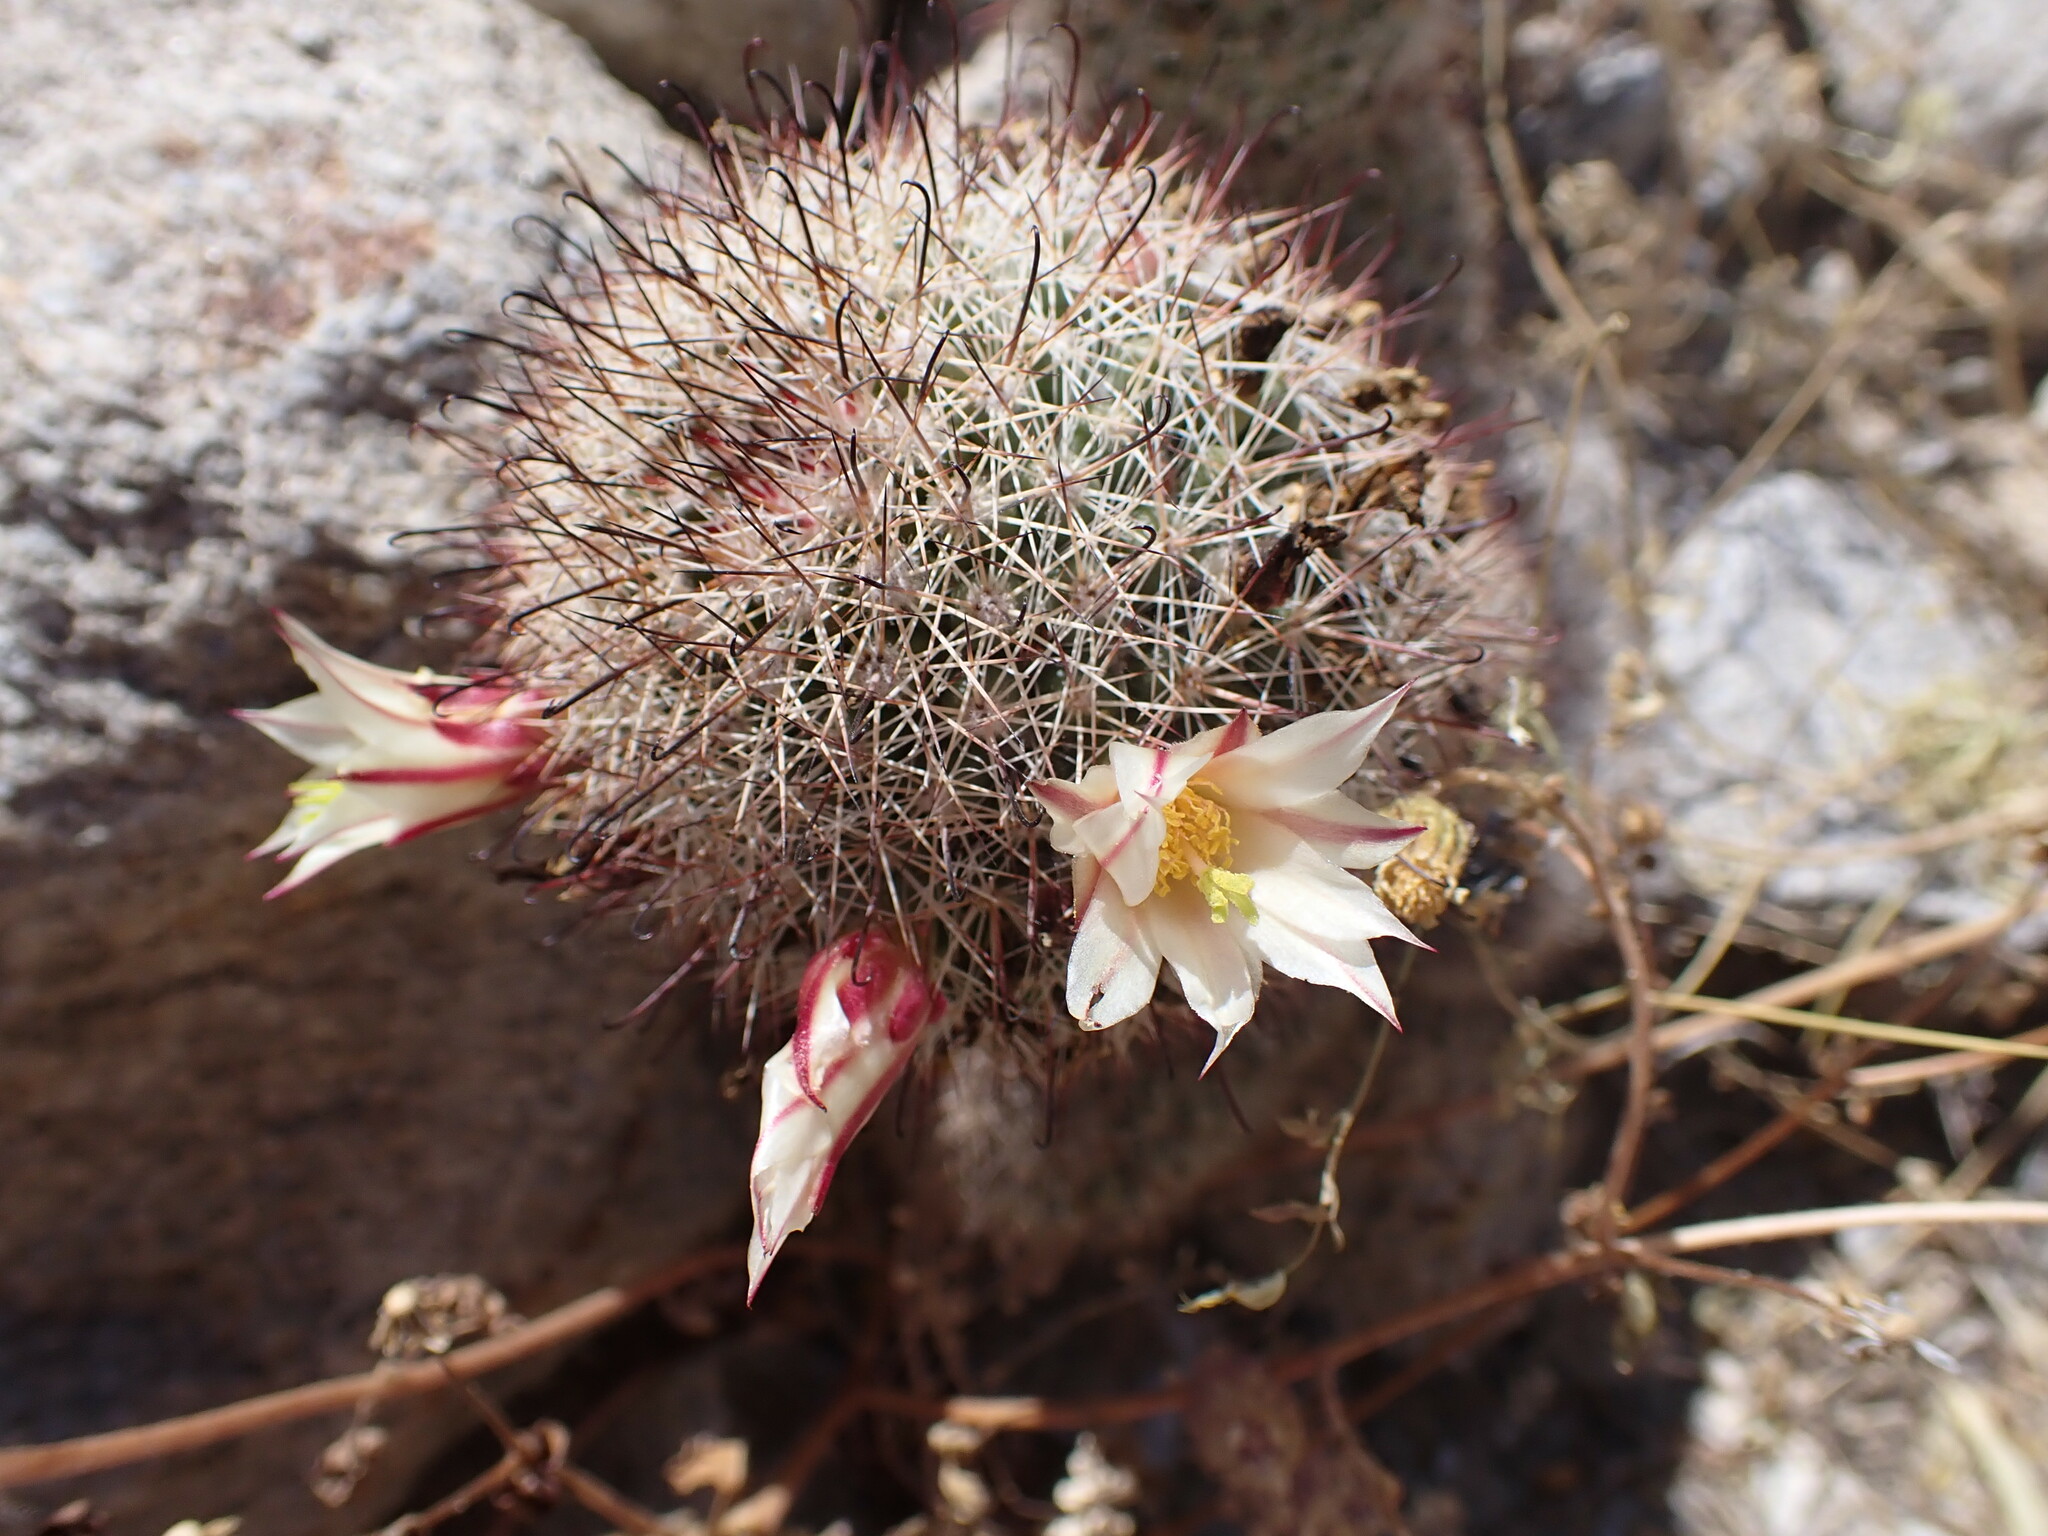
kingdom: Plantae
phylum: Tracheophyta
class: Magnoliopsida
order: Caryophyllales
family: Cactaceae
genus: Cochemiea
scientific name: Cochemiea dioica
